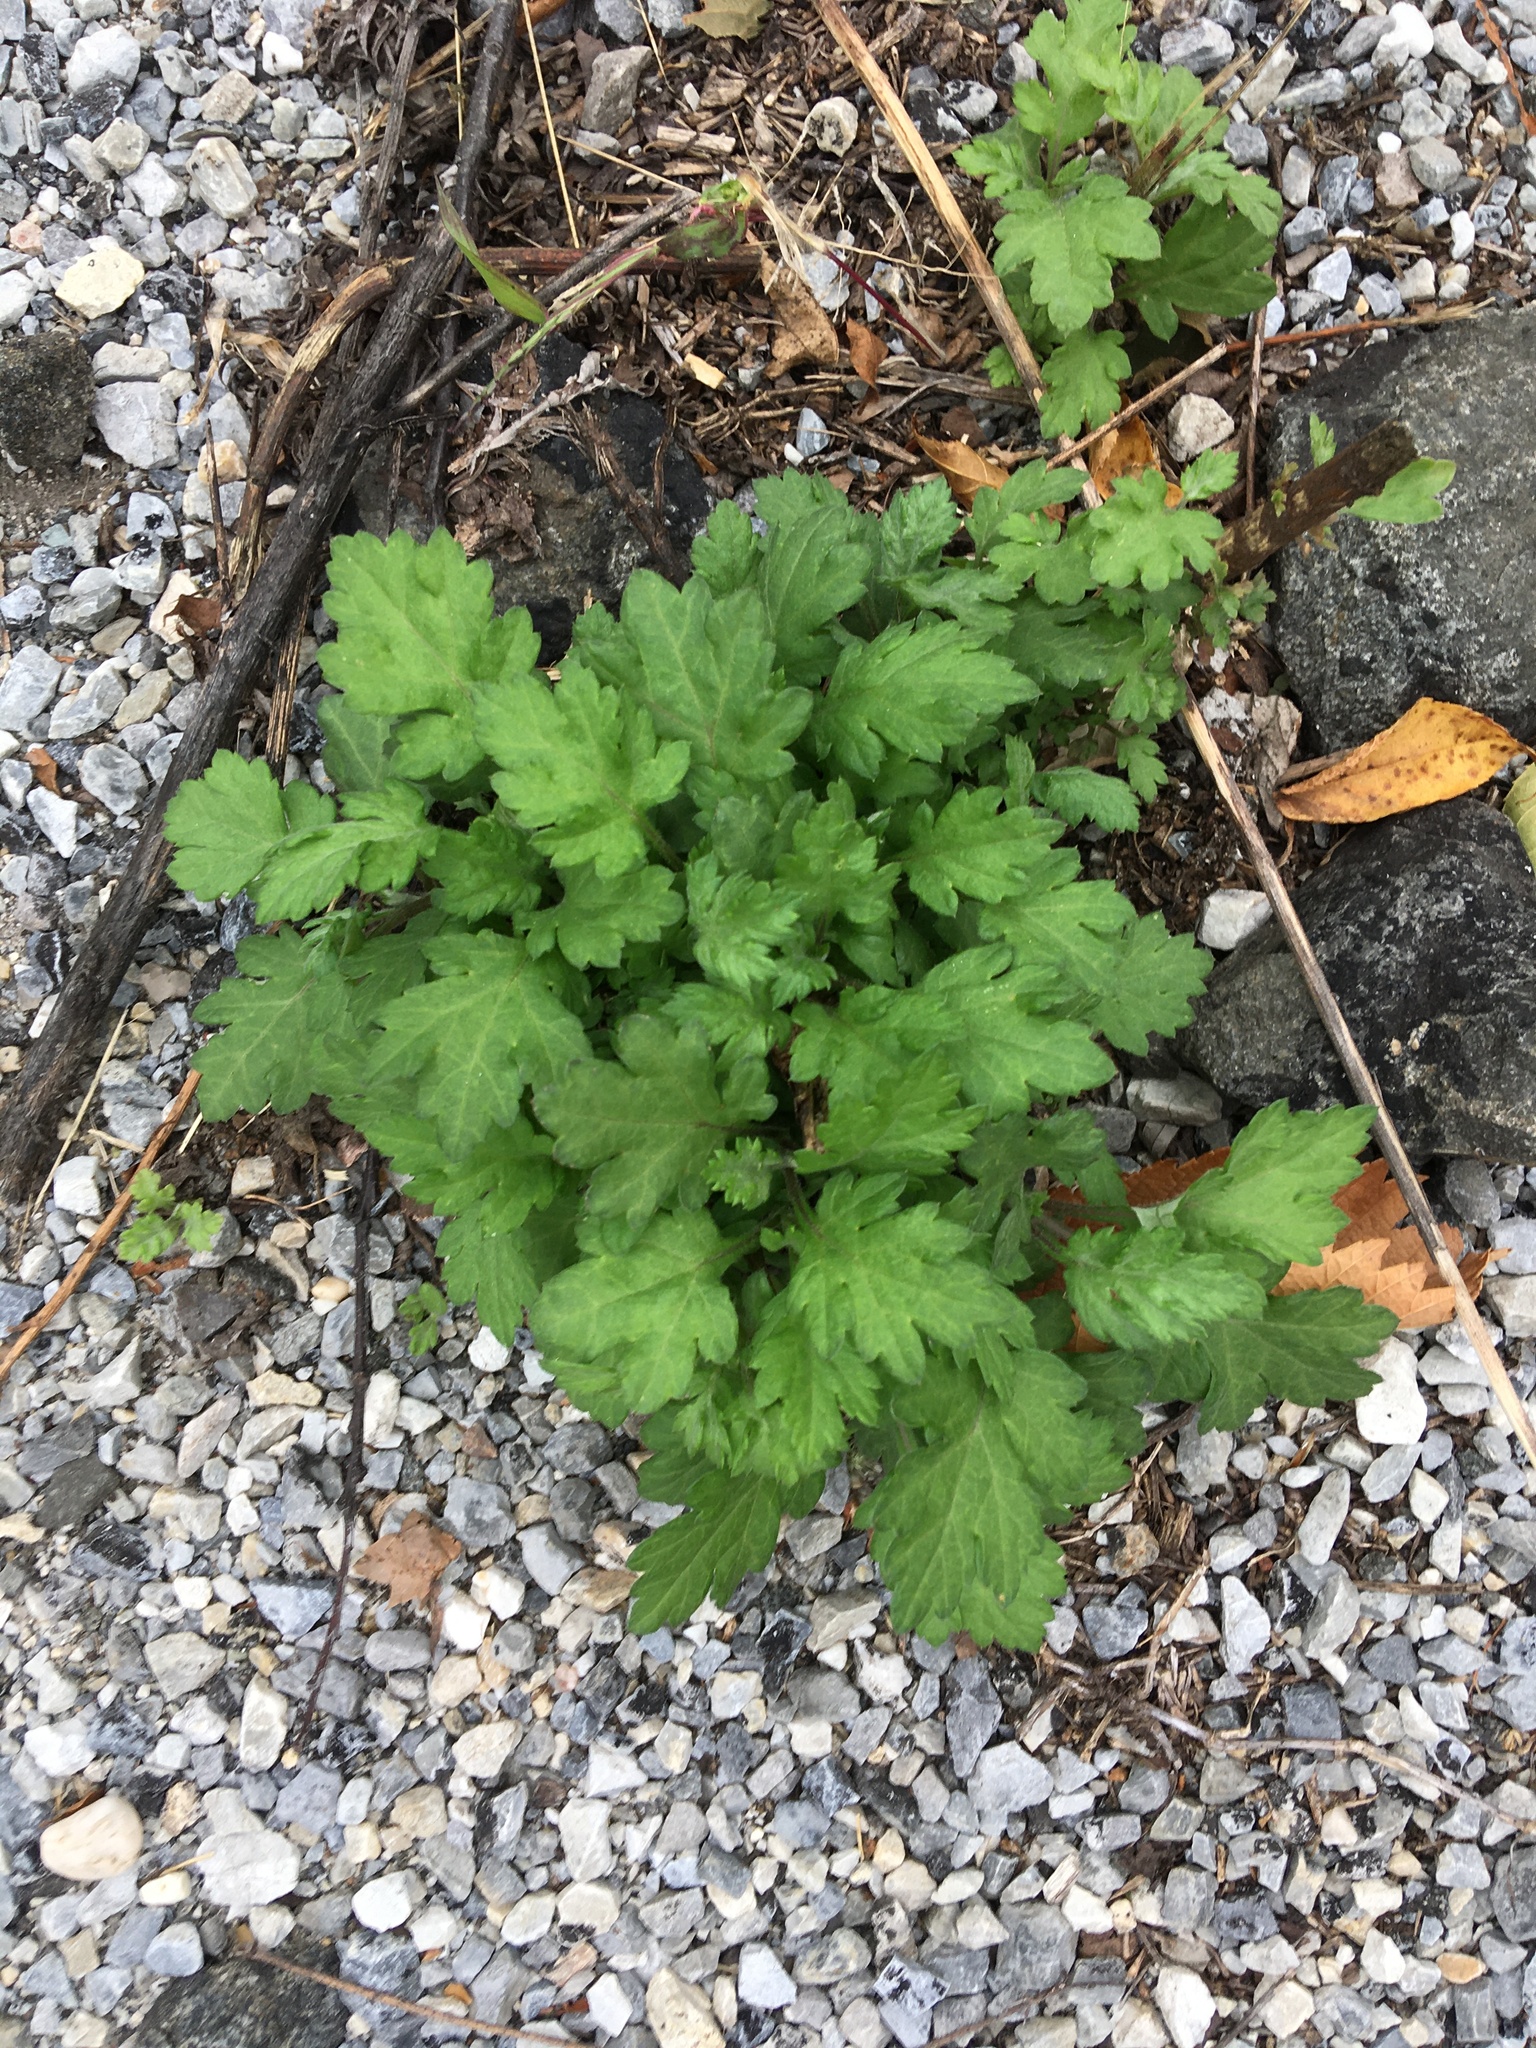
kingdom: Plantae
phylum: Tracheophyta
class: Magnoliopsida
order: Asterales
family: Asteraceae
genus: Artemisia
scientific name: Artemisia vulgaris
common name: Mugwort
